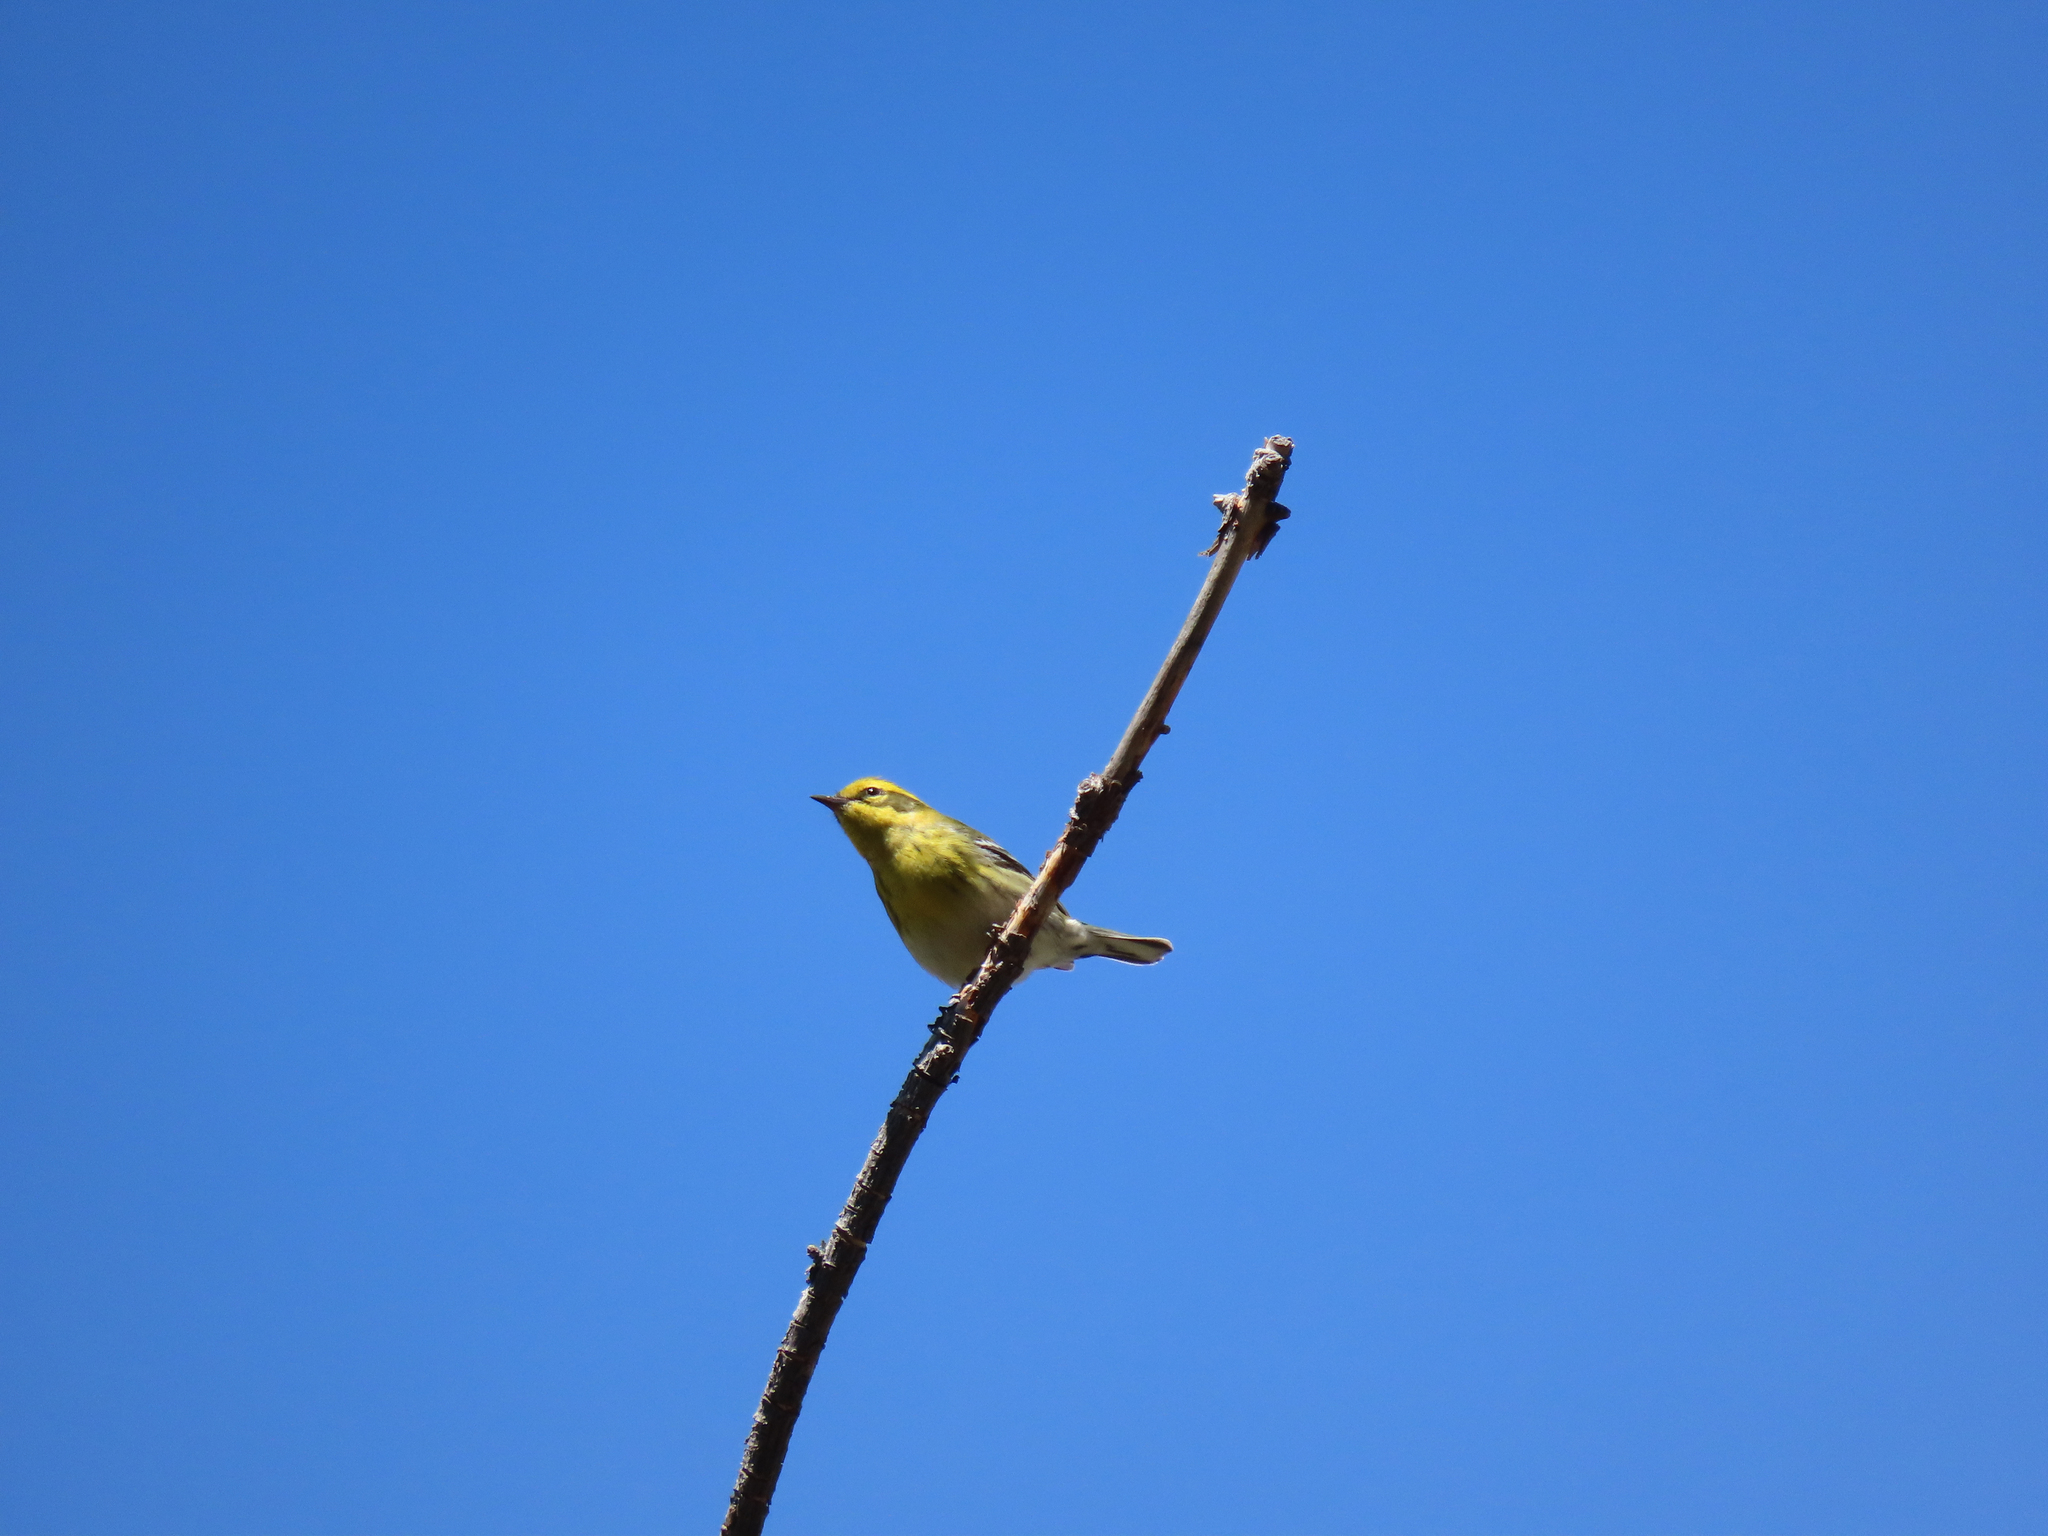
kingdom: Animalia
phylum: Chordata
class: Aves
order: Passeriformes
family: Parulidae
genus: Setophaga
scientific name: Setophaga townsendi
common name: Townsend's warbler
